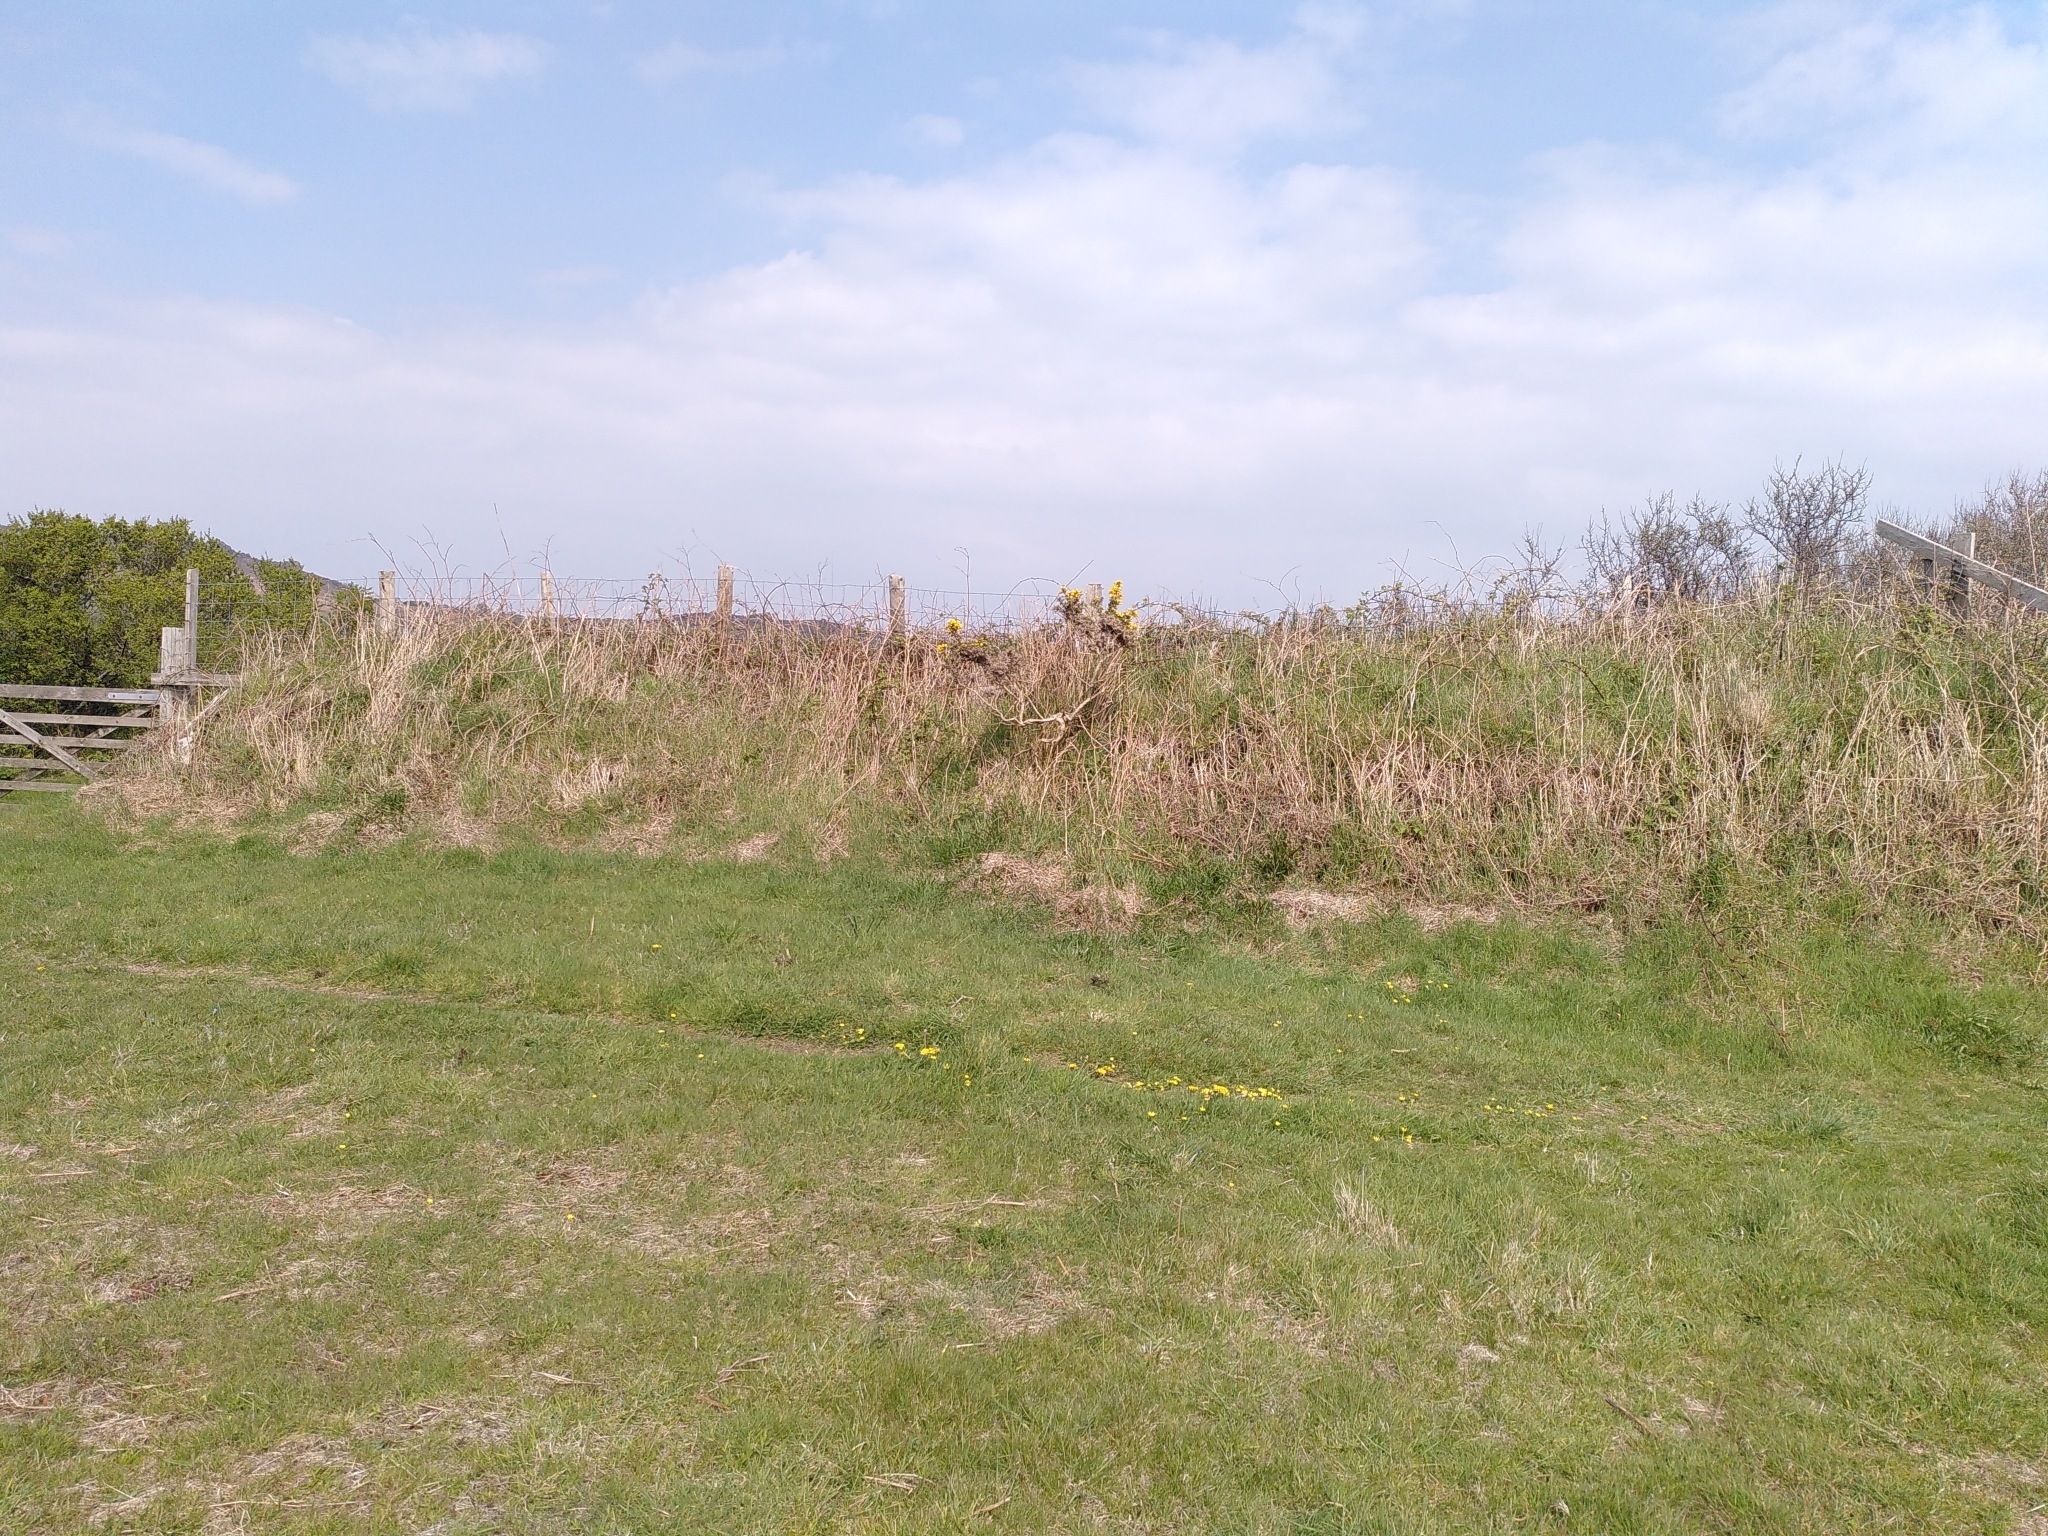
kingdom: Animalia
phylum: Arthropoda
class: Insecta
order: Diptera
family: Bombyliidae
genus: Bombylius
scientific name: Bombylius major
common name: Bee fly
